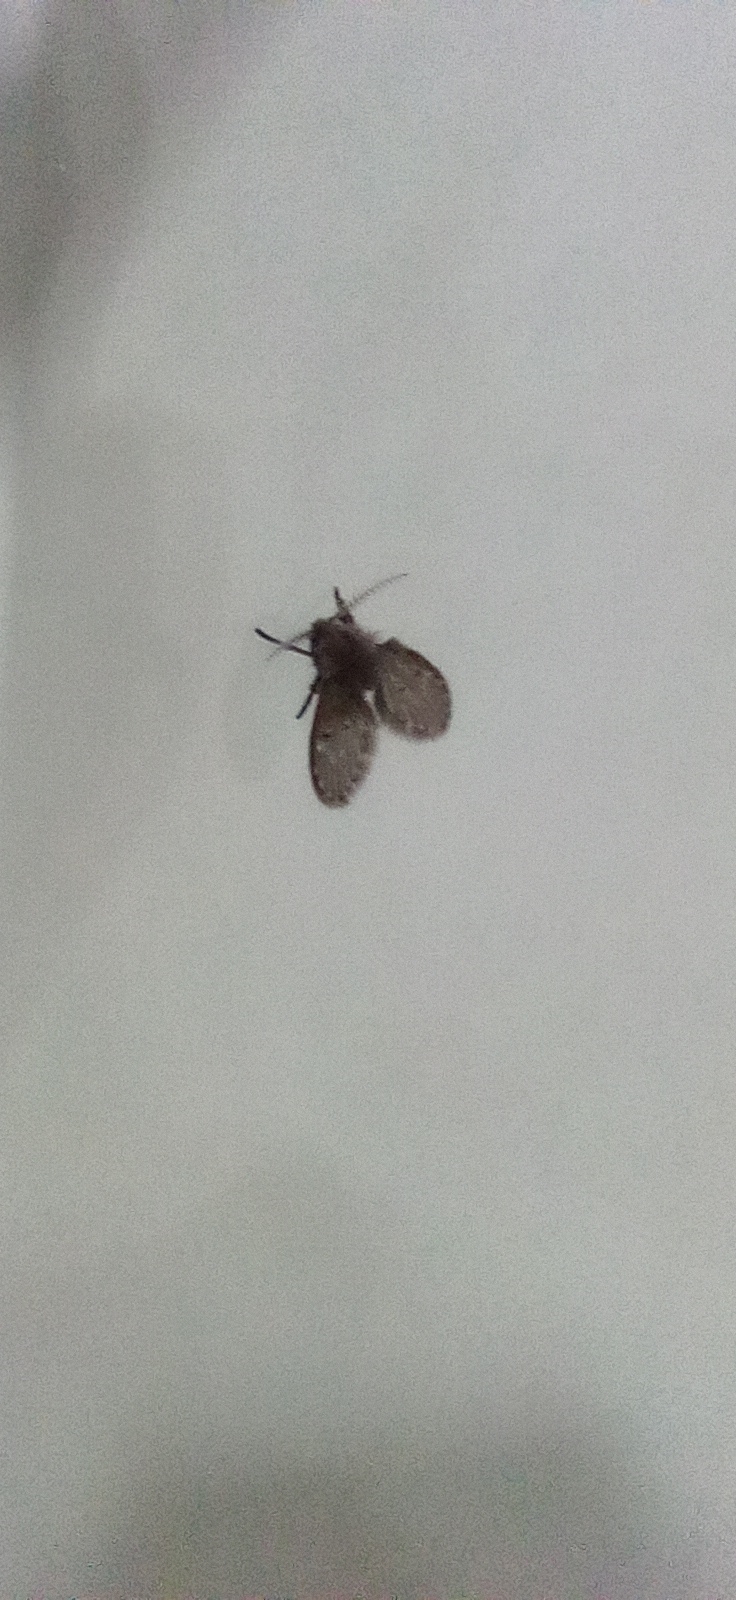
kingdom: Animalia
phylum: Arthropoda
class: Insecta
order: Diptera
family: Psychodidae
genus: Clogmia
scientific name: Clogmia albipunctatus
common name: White-spotted moth fly
